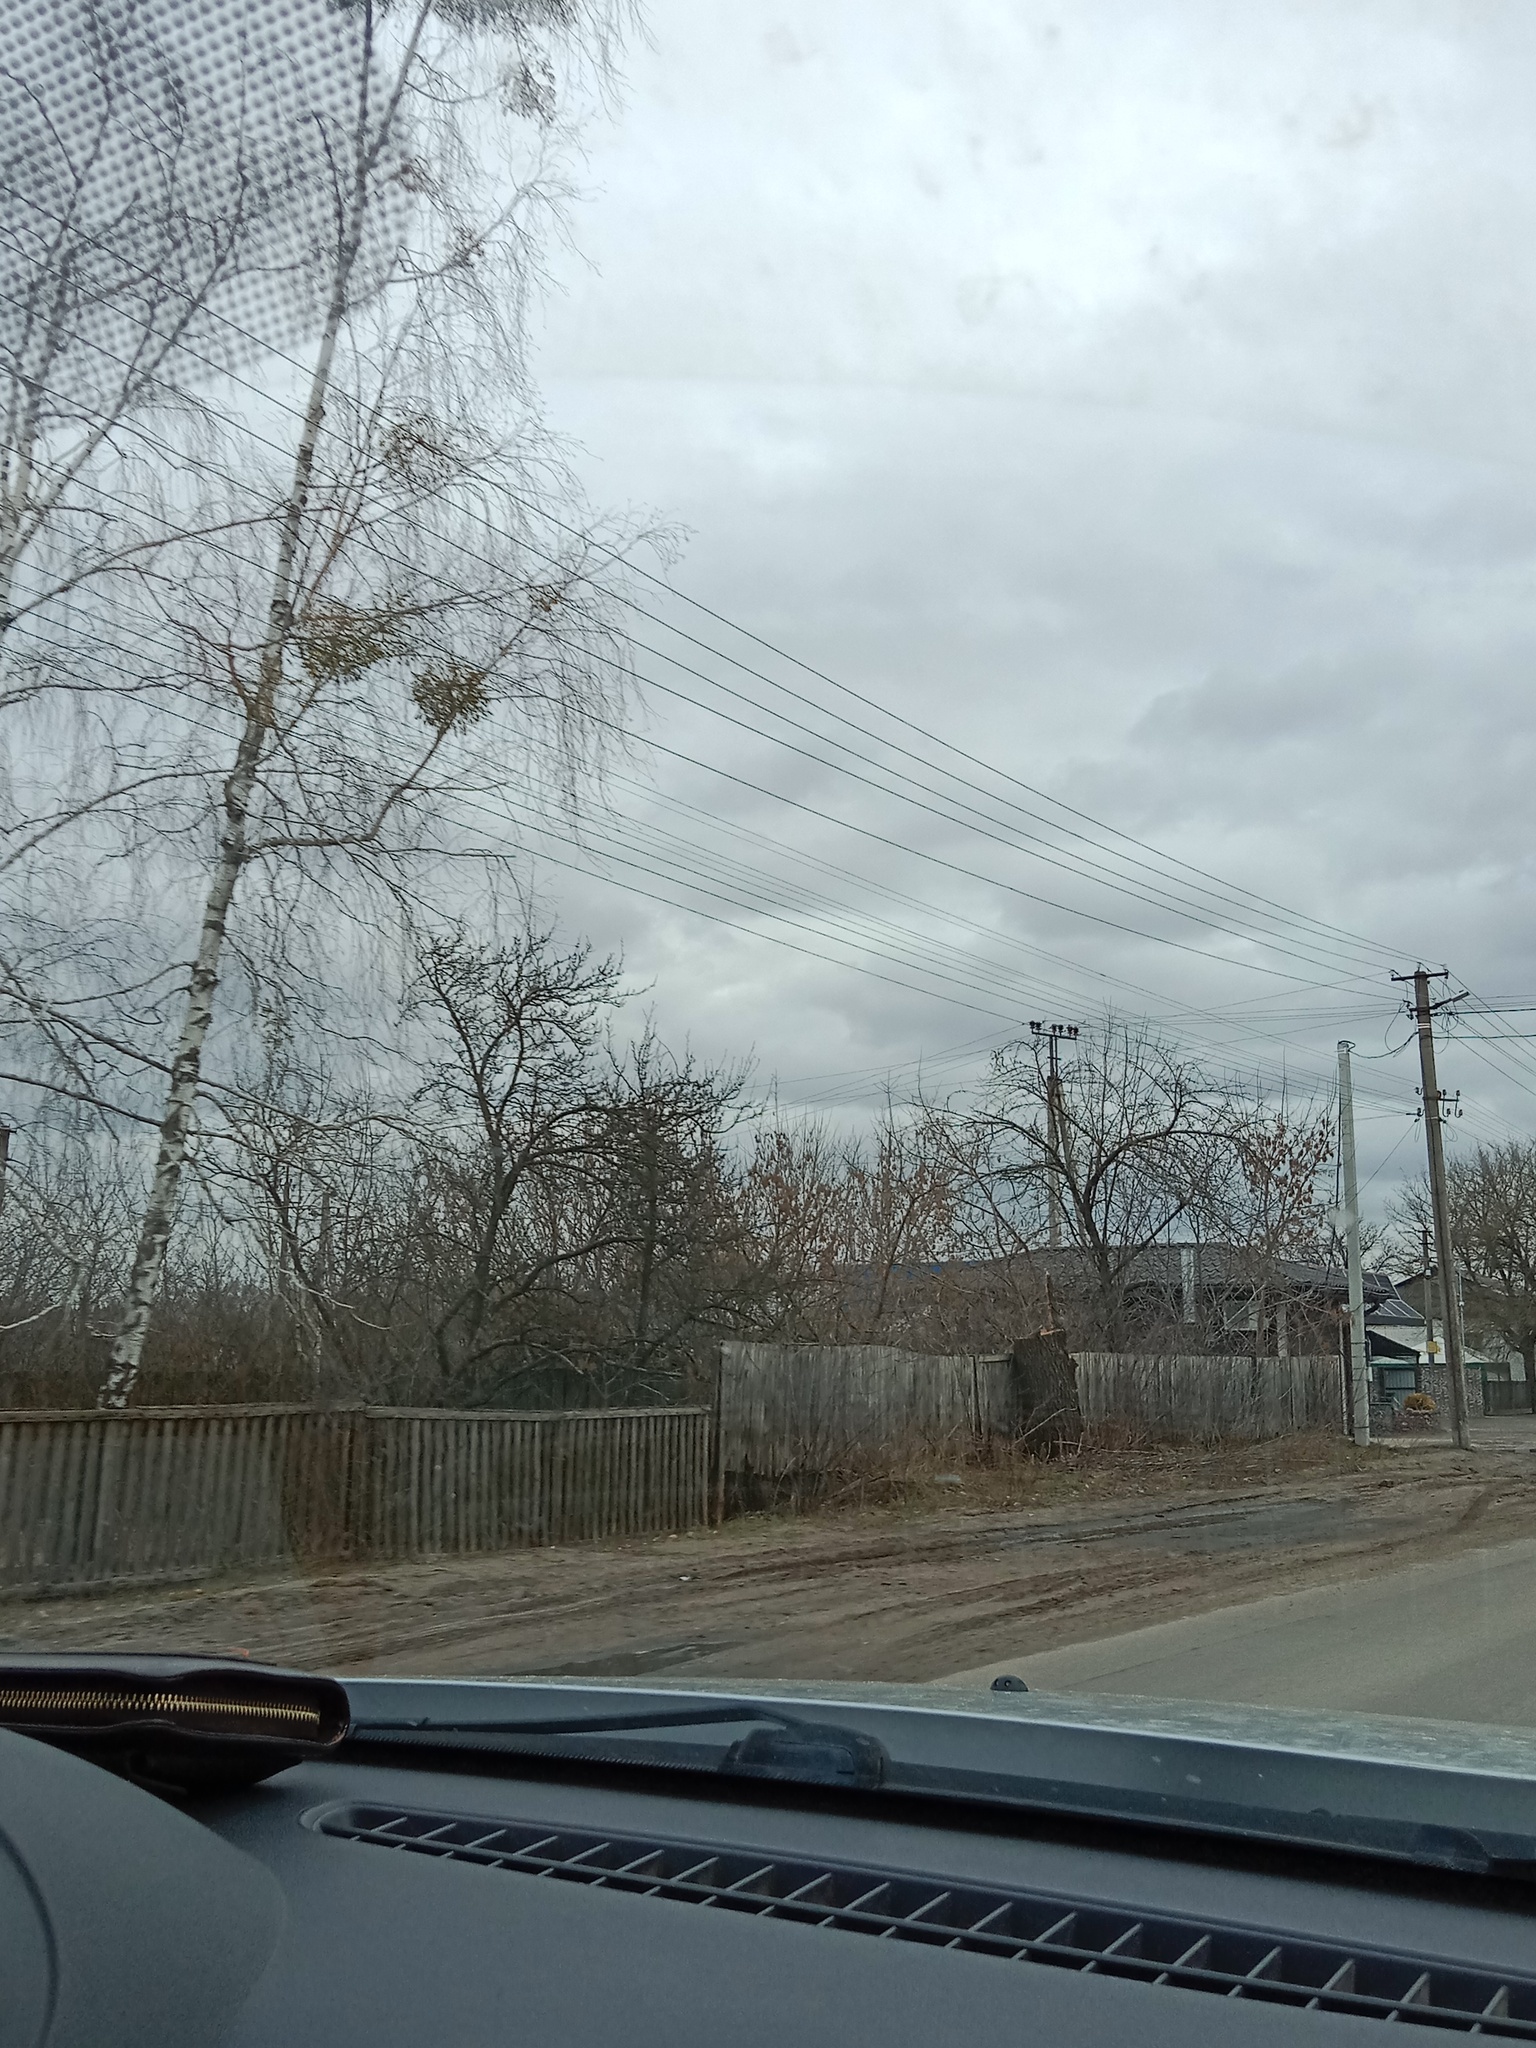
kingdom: Plantae
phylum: Tracheophyta
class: Magnoliopsida
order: Santalales
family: Viscaceae
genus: Viscum
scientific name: Viscum album
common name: Mistletoe
